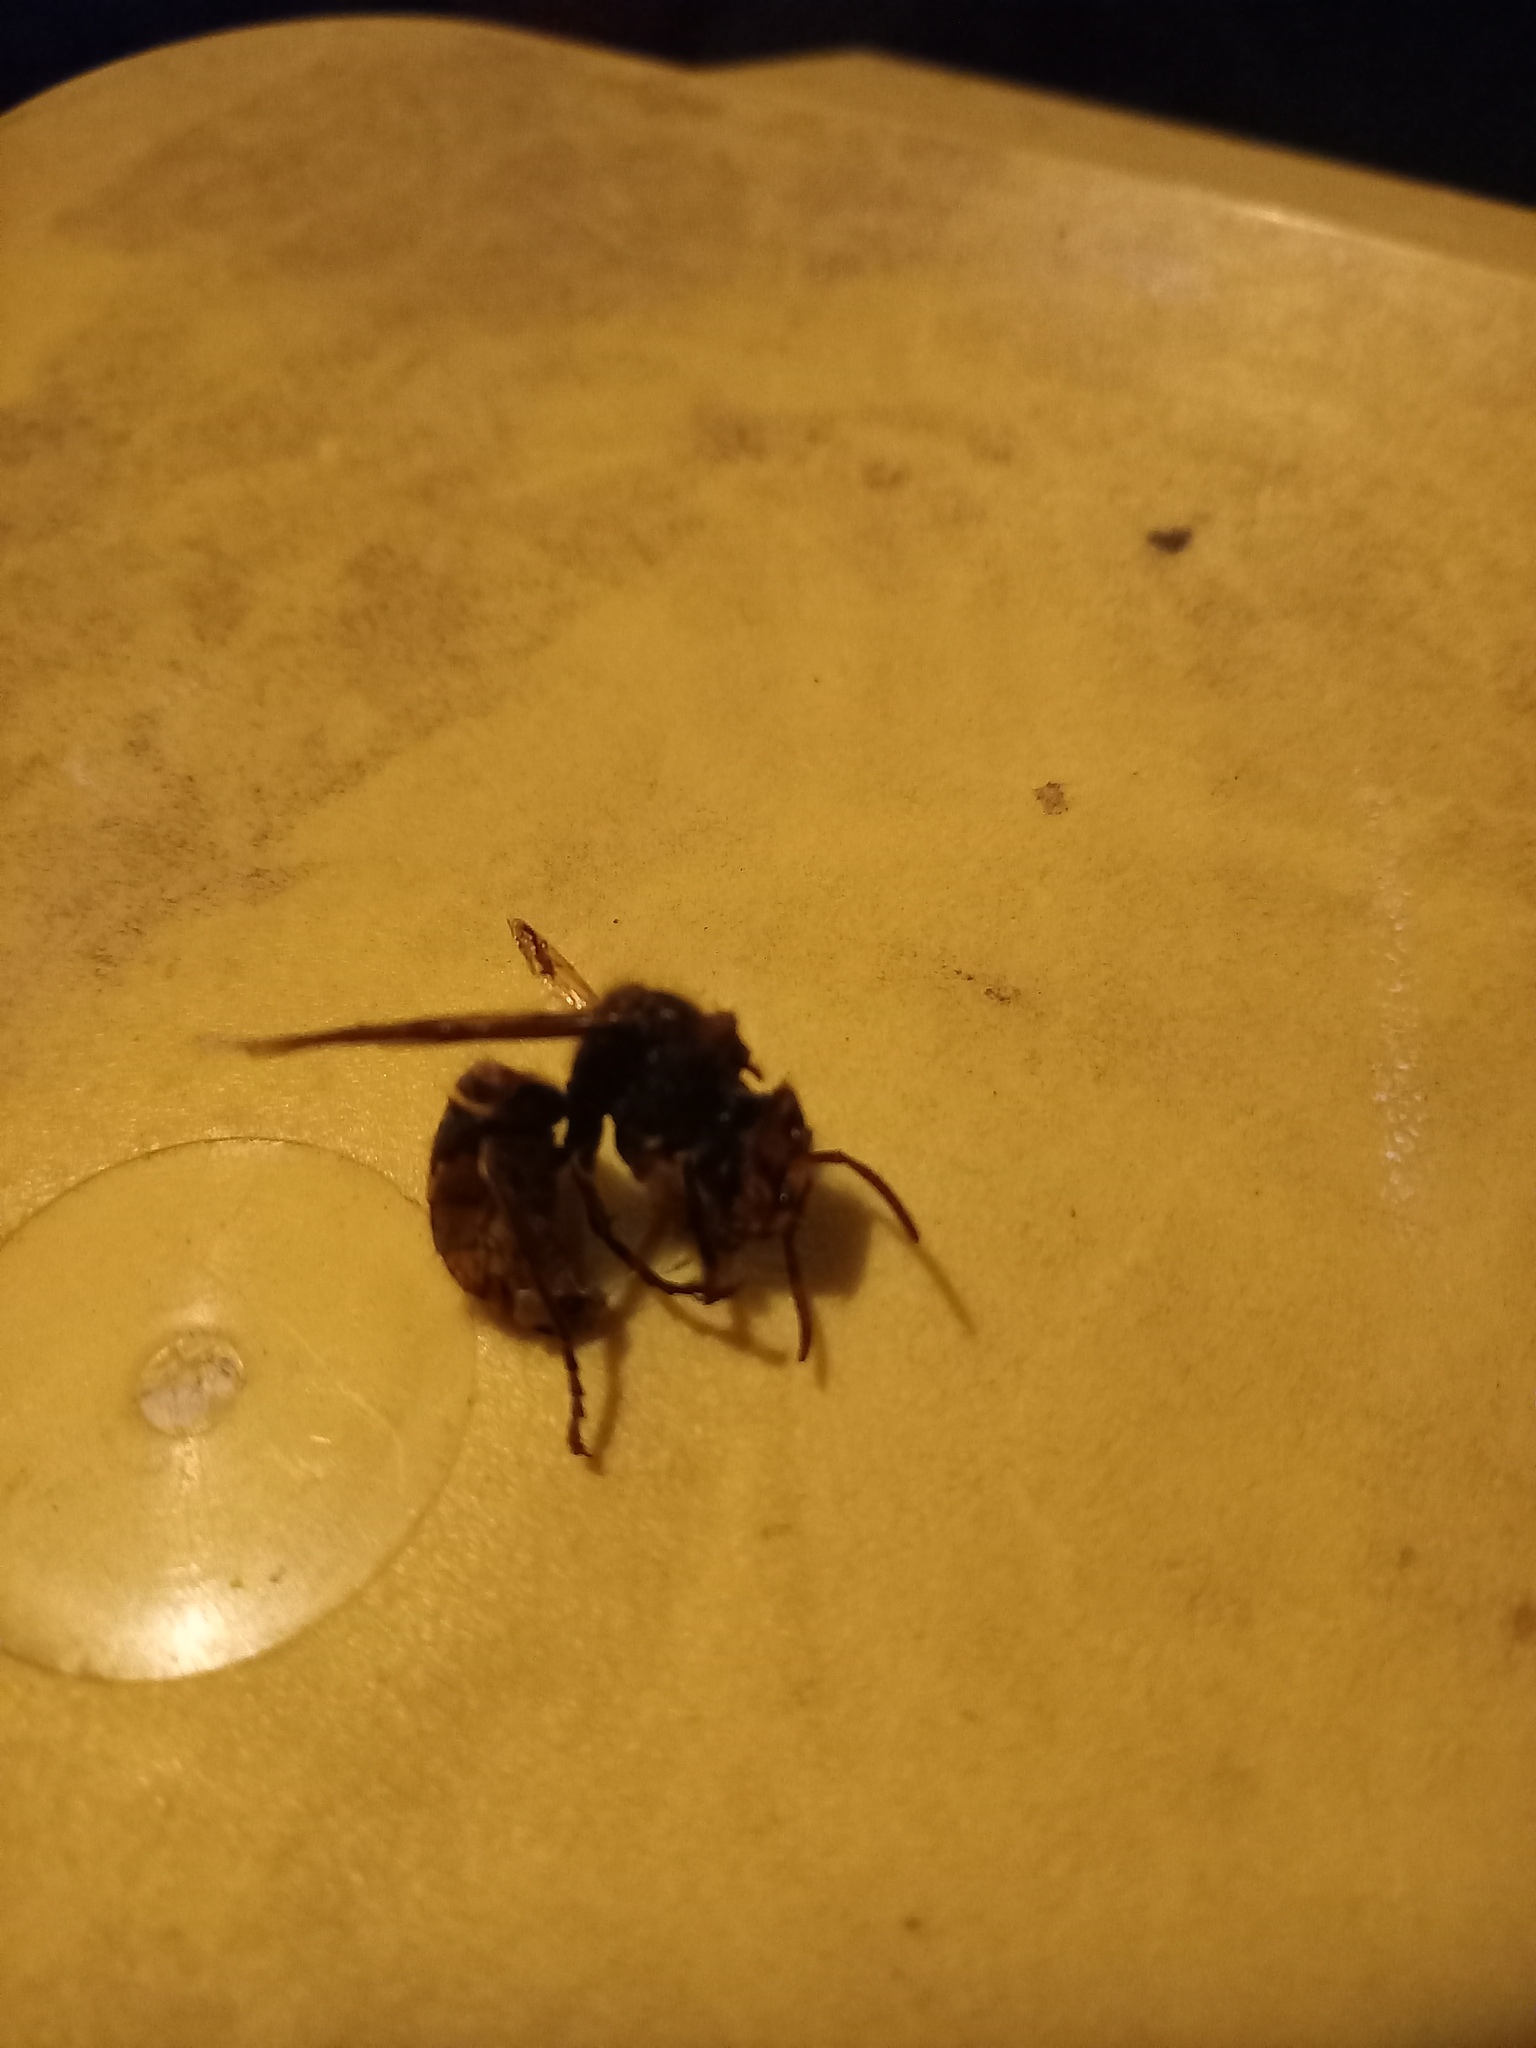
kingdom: Animalia
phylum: Arthropoda
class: Insecta
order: Hymenoptera
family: Vespidae
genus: Vespa
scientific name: Vespa crabro
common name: Hornet
